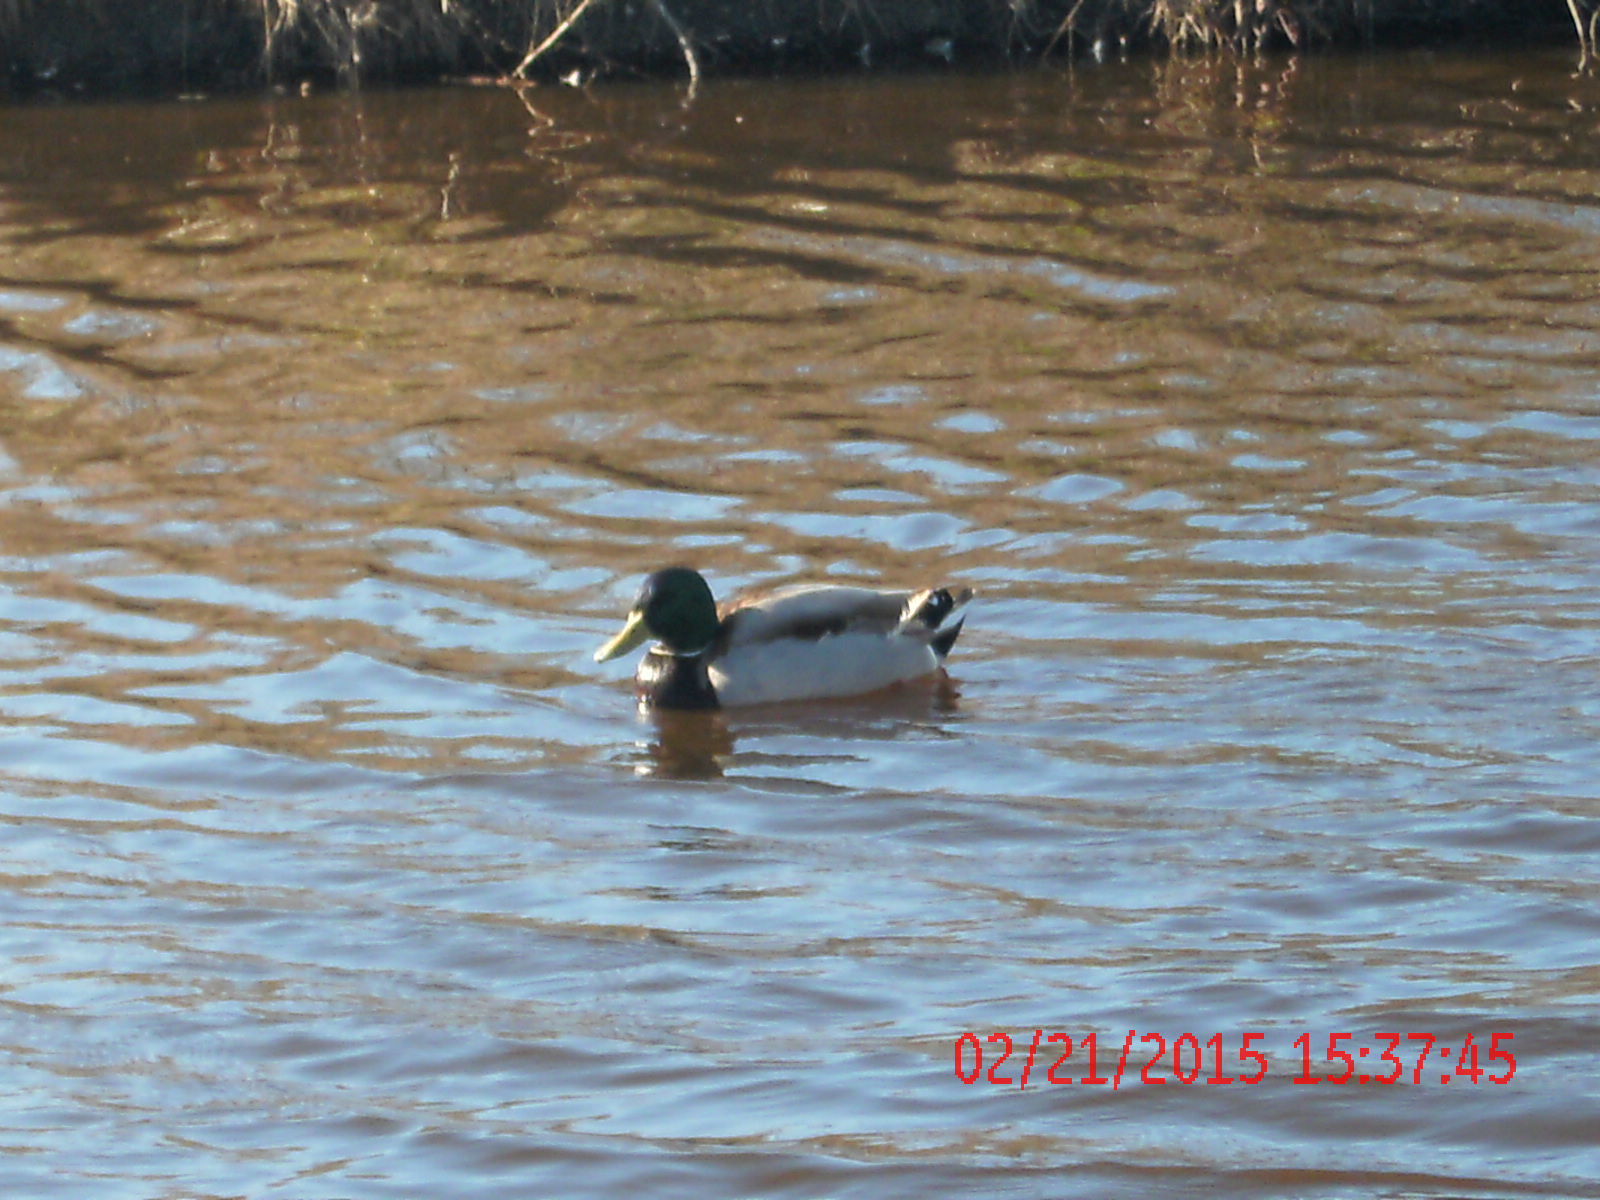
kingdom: Animalia
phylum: Chordata
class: Aves
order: Anseriformes
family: Anatidae
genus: Anas
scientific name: Anas platyrhynchos
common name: Mallard
